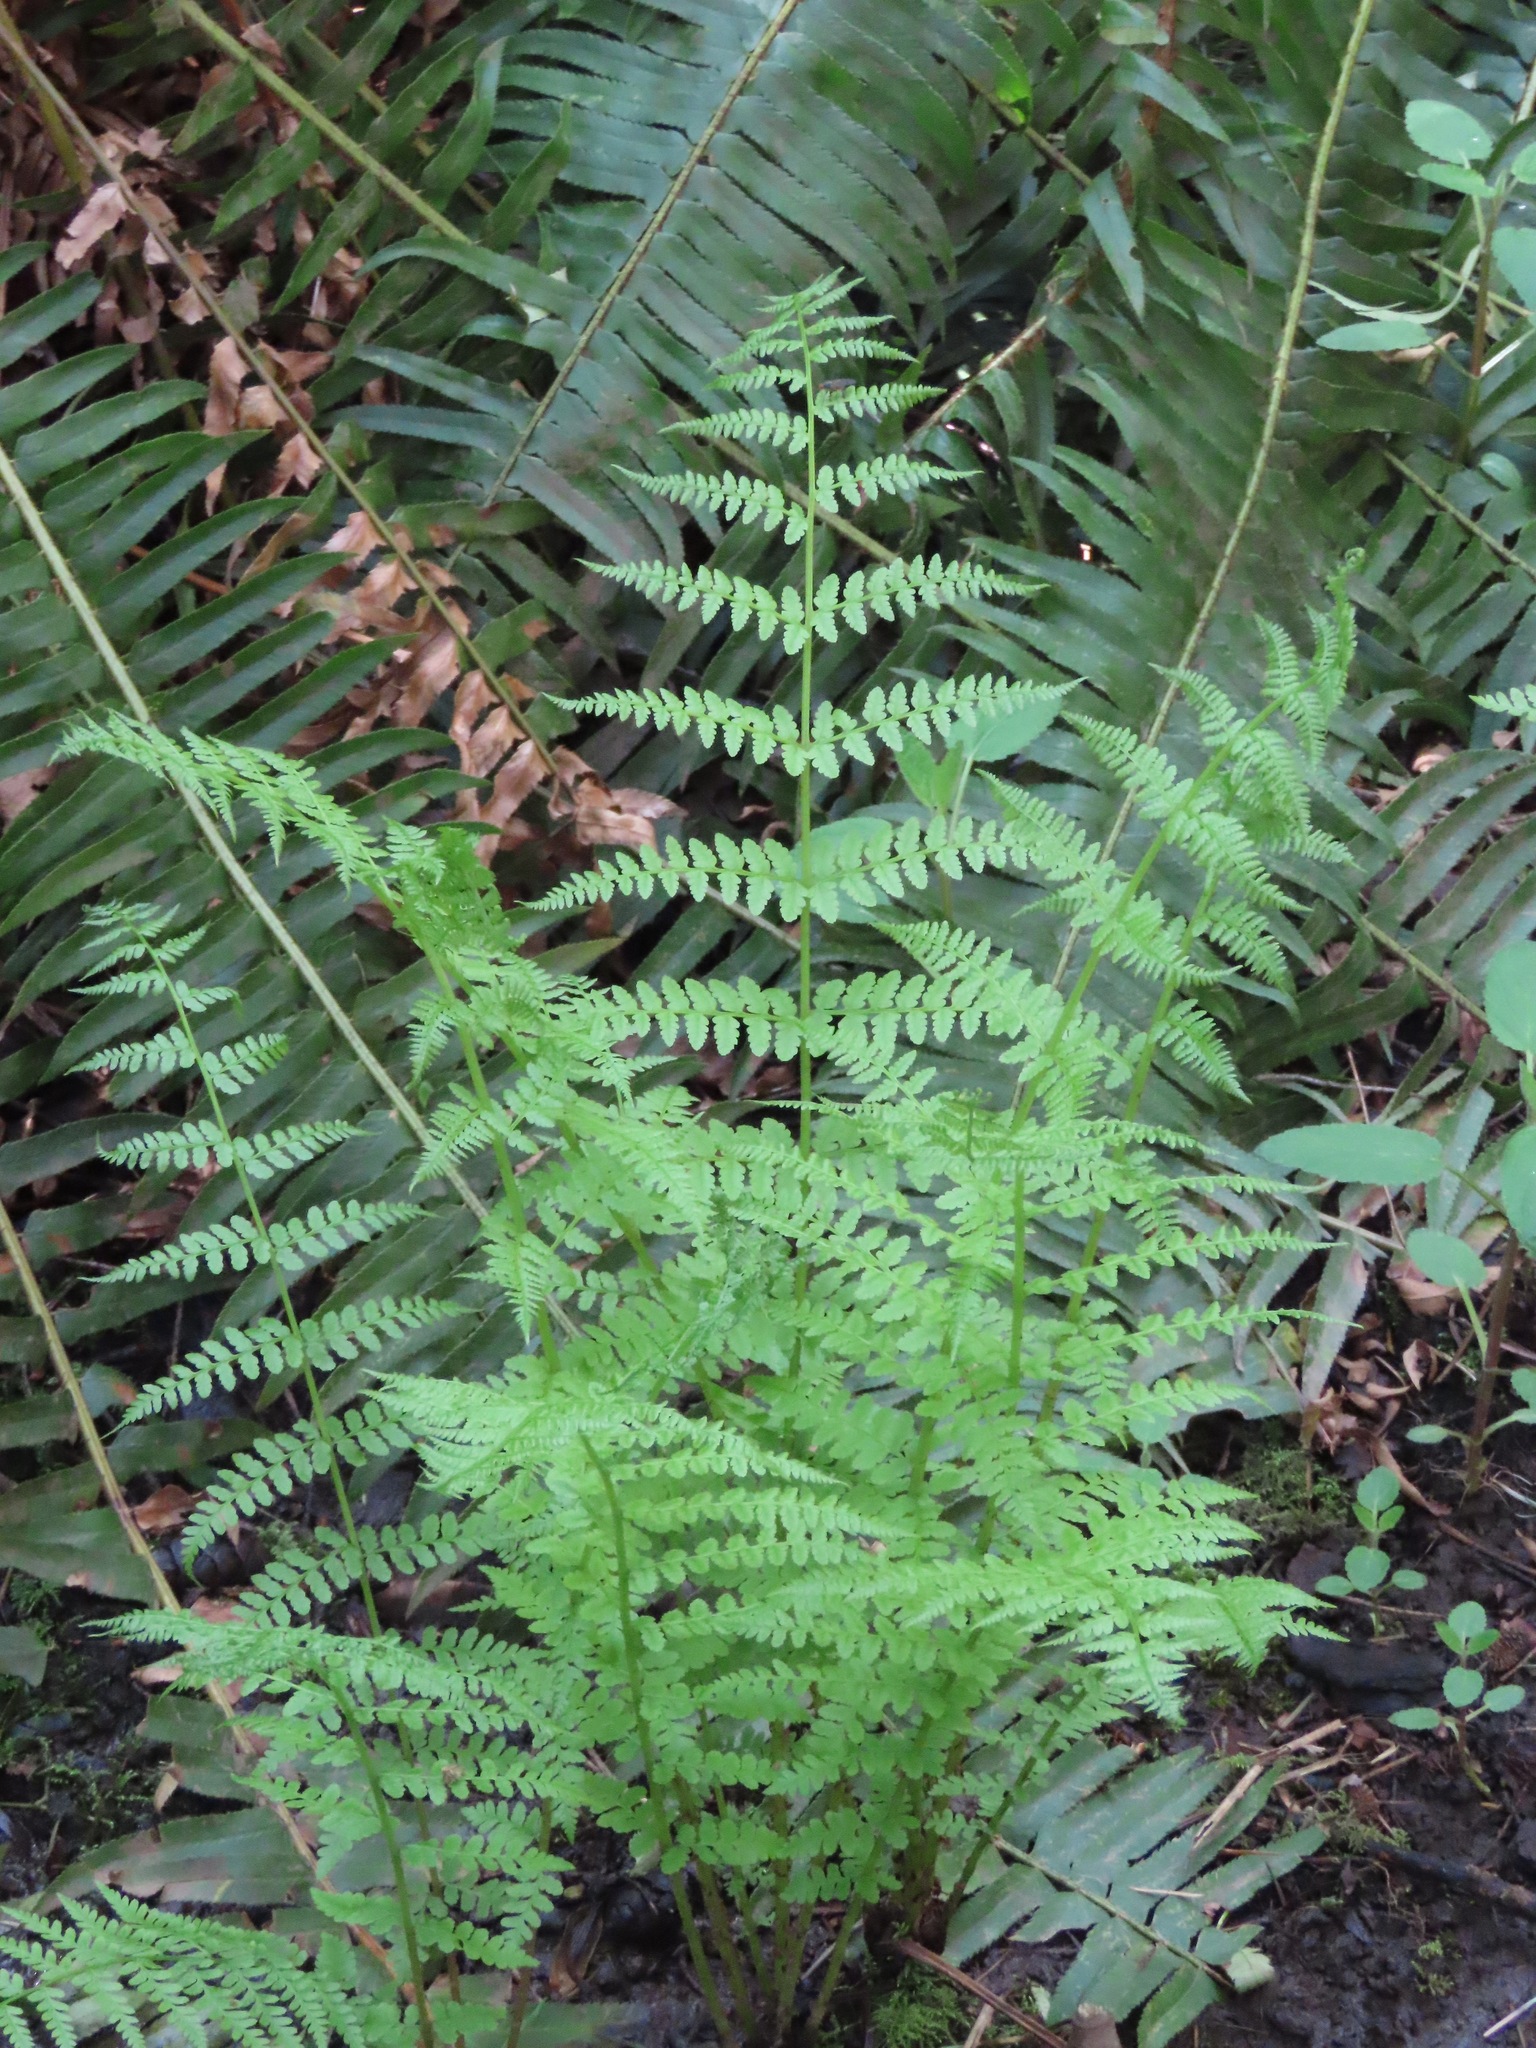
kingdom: Plantae
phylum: Tracheophyta
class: Polypodiopsida
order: Polypodiales
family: Athyriaceae
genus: Athyrium
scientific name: Athyrium filix-femina
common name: Lady fern
